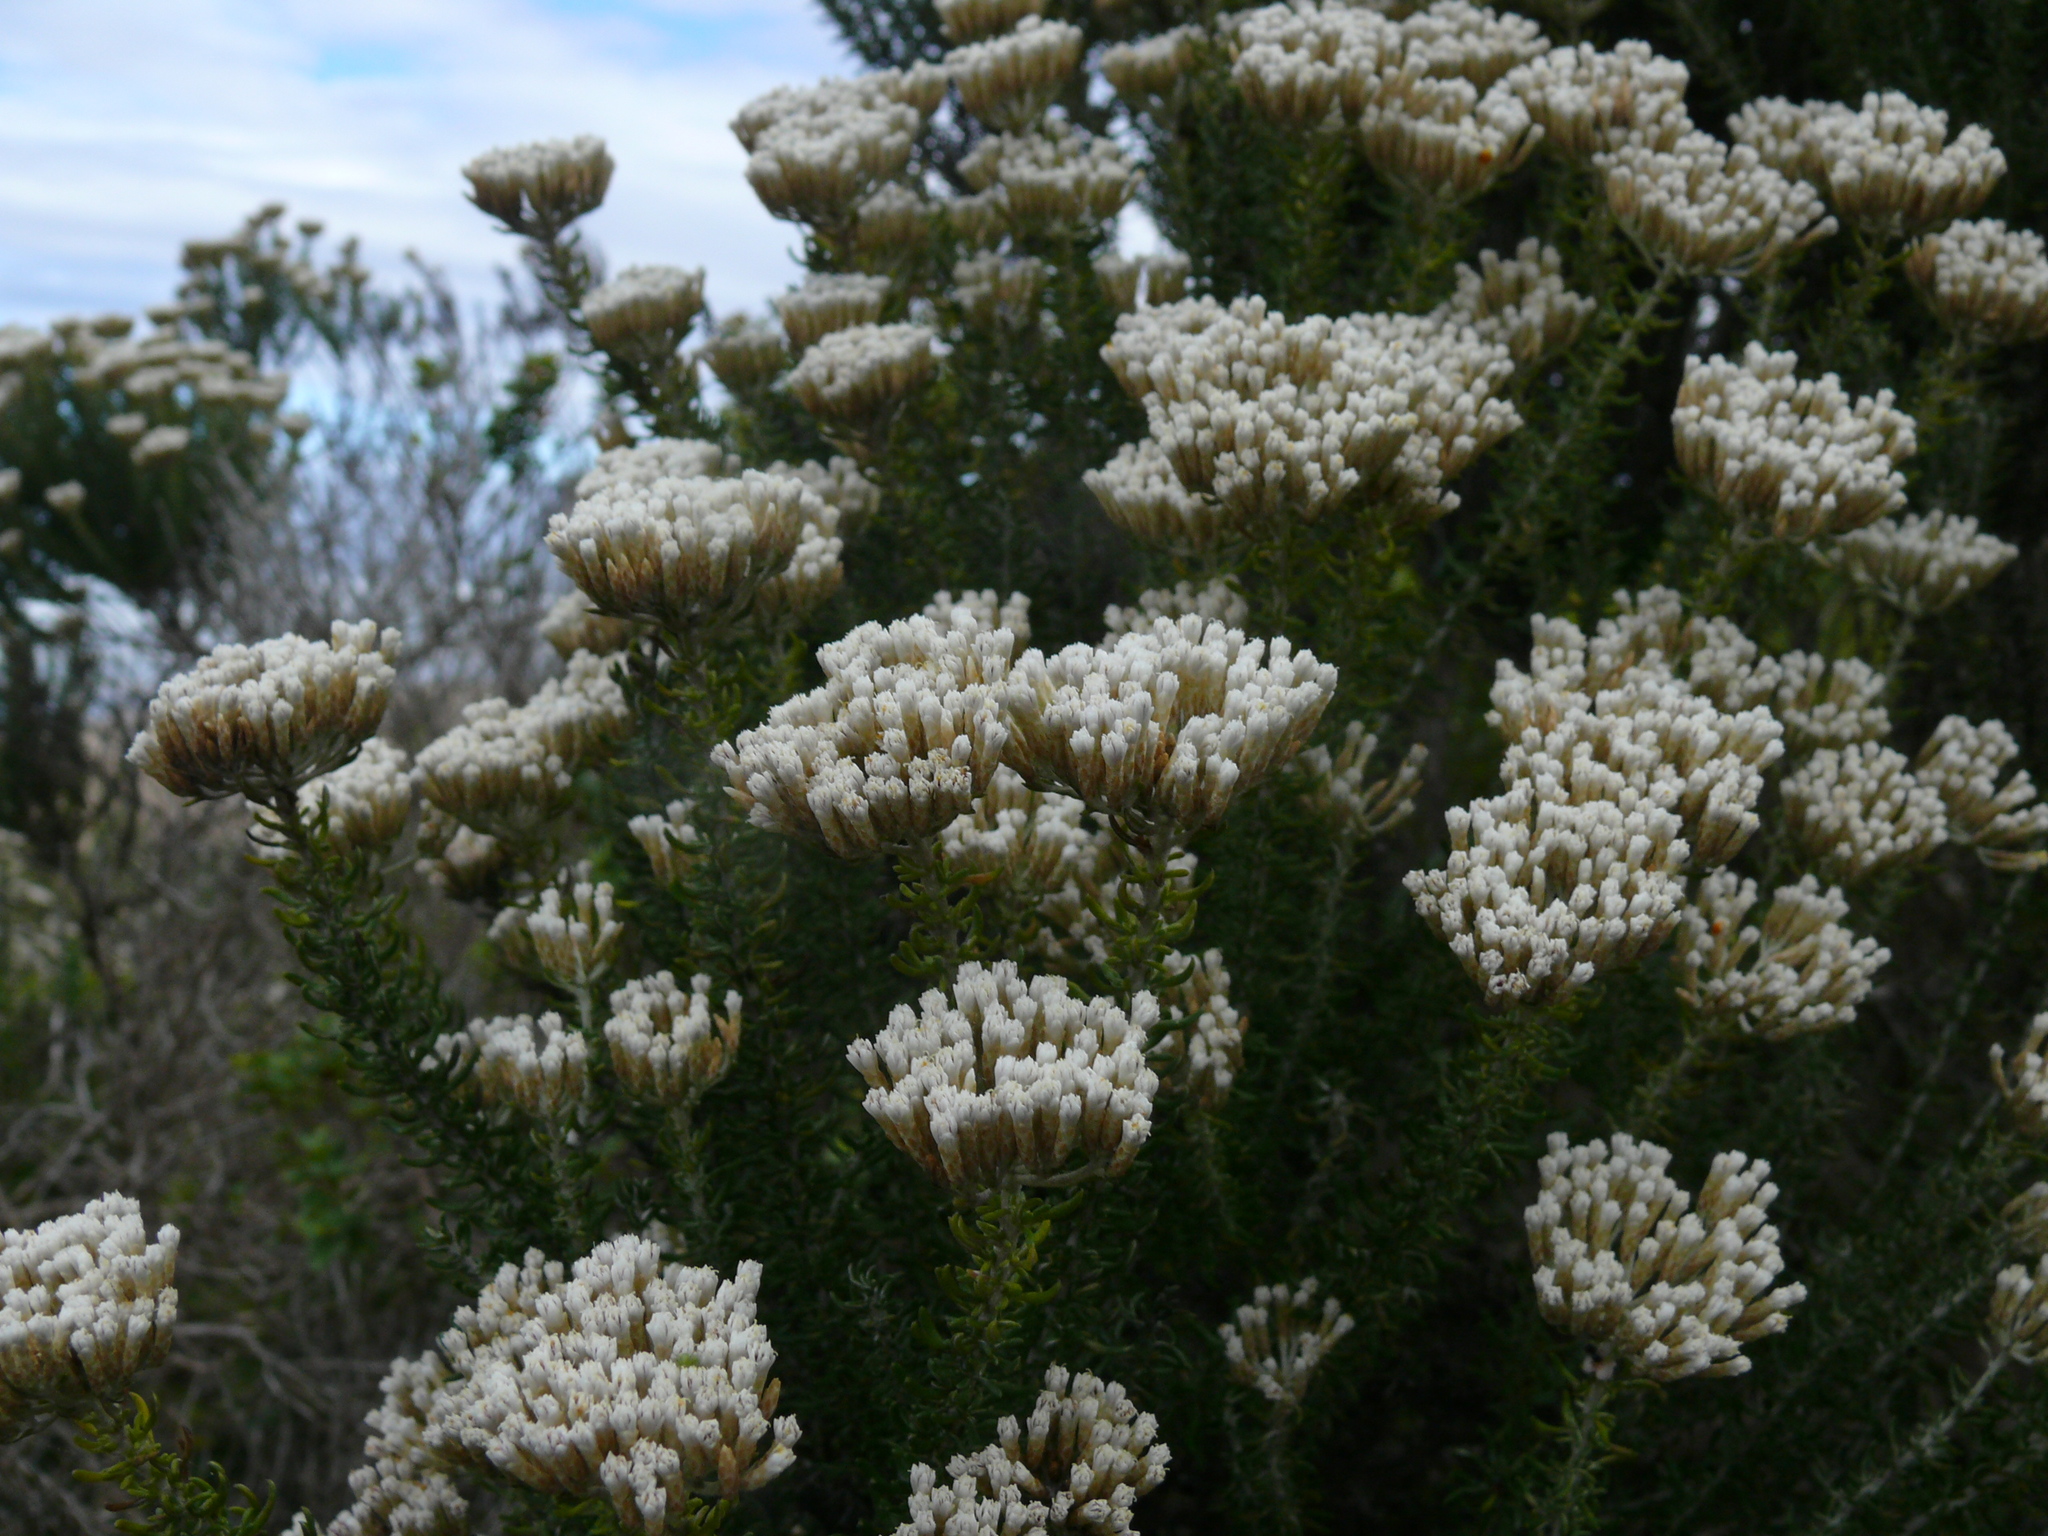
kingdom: Plantae
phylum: Tracheophyta
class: Magnoliopsida
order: Asterales
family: Asteraceae
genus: Metalasia
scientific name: Metalasia muricata
